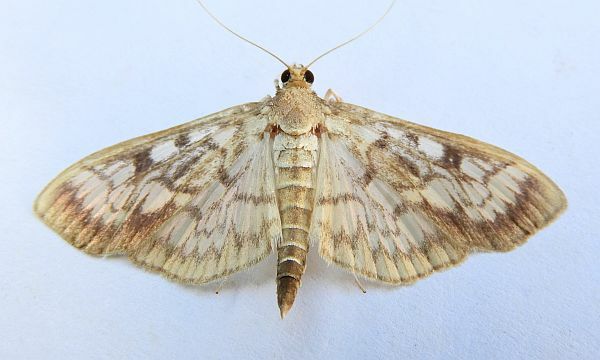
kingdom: Animalia
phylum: Arthropoda
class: Insecta
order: Lepidoptera
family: Crambidae
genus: Herpetogramma
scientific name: Herpetogramma thestealis
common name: Zigzag herpetogramma moth
